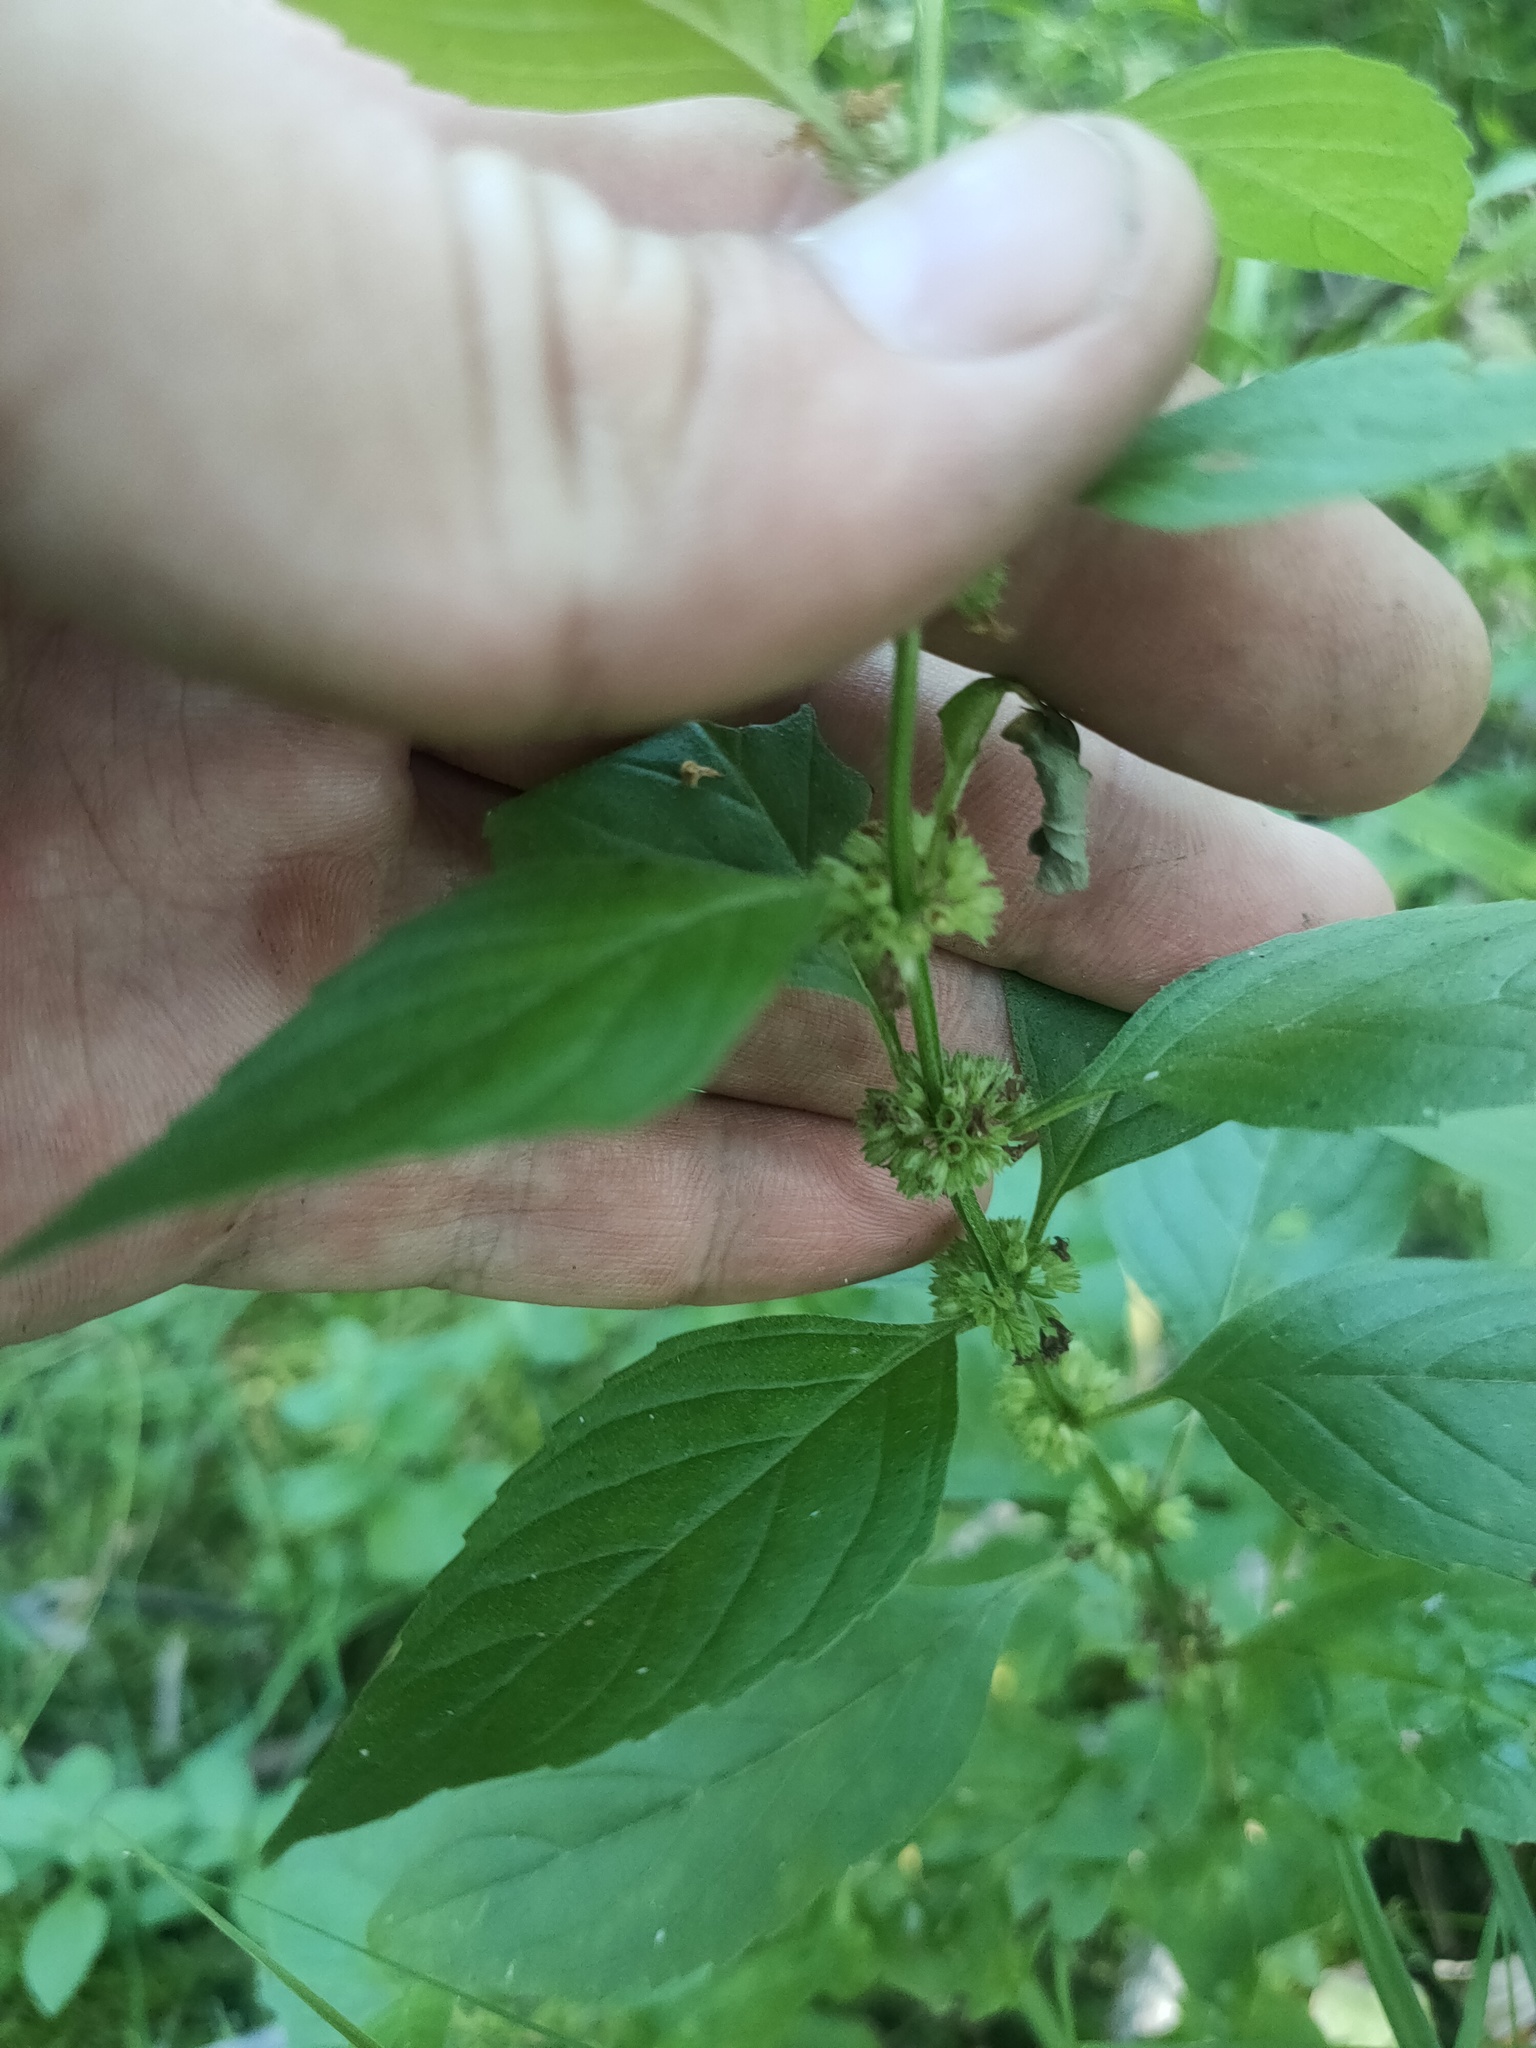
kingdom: Plantae
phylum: Tracheophyta
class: Magnoliopsida
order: Lamiales
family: Lamiaceae
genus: Mentha
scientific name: Mentha arvensis
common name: Corn mint
